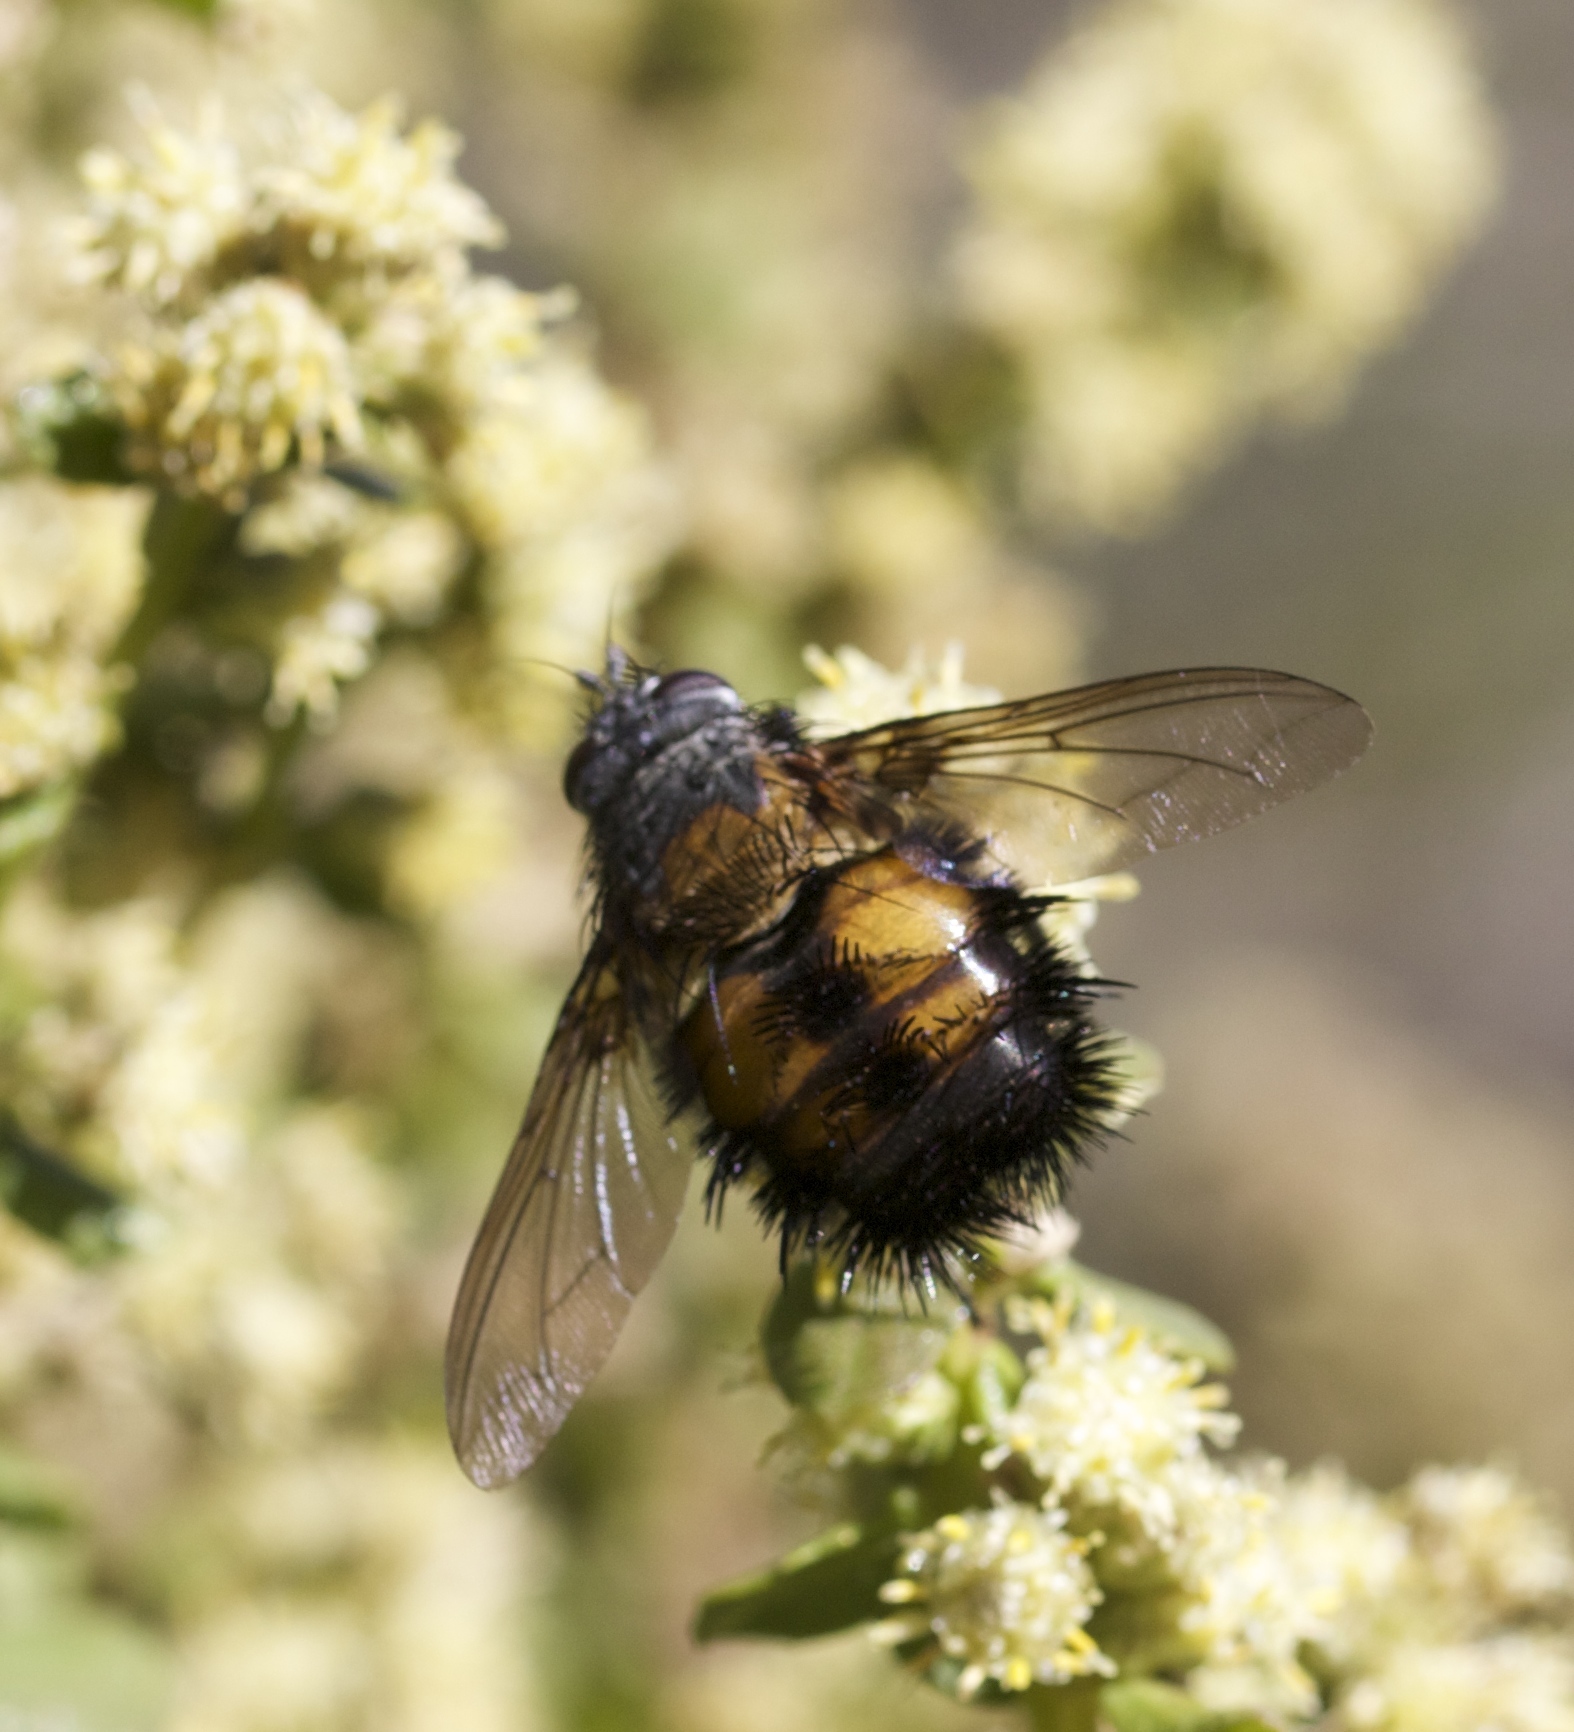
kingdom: Animalia
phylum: Arthropoda
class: Insecta
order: Diptera
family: Tachinidae
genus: Paradejeania
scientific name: Paradejeania rutilioides
